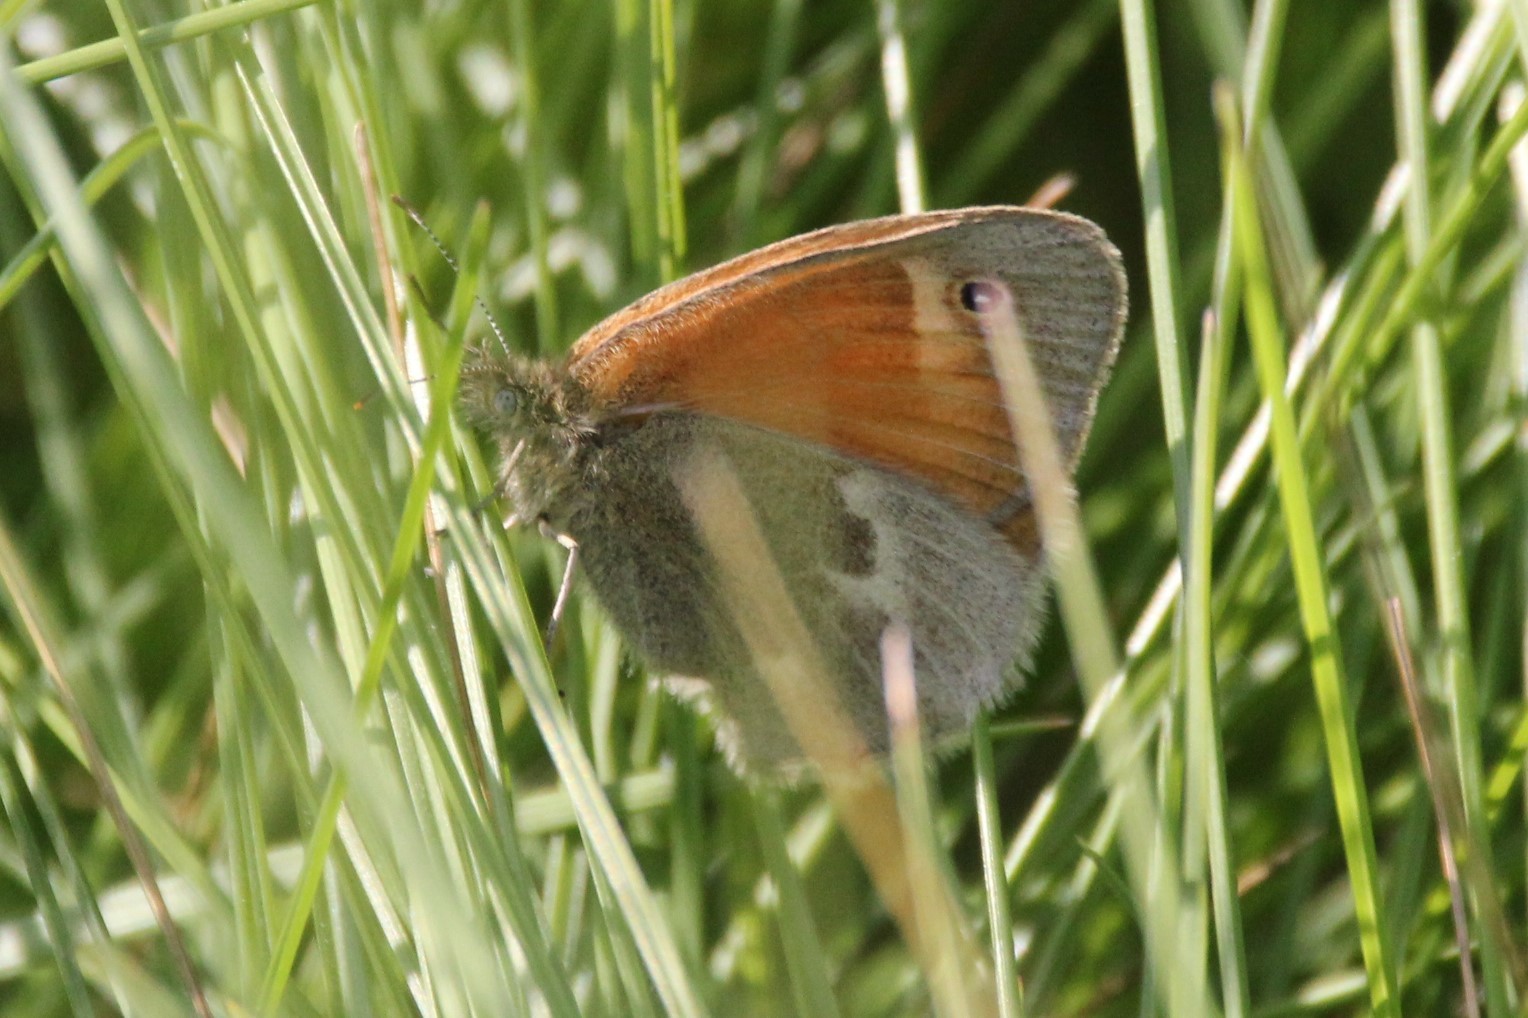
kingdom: Animalia
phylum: Arthropoda
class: Insecta
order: Lepidoptera
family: Nymphalidae
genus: Coenonympha
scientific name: Coenonympha california
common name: Common ringlet
